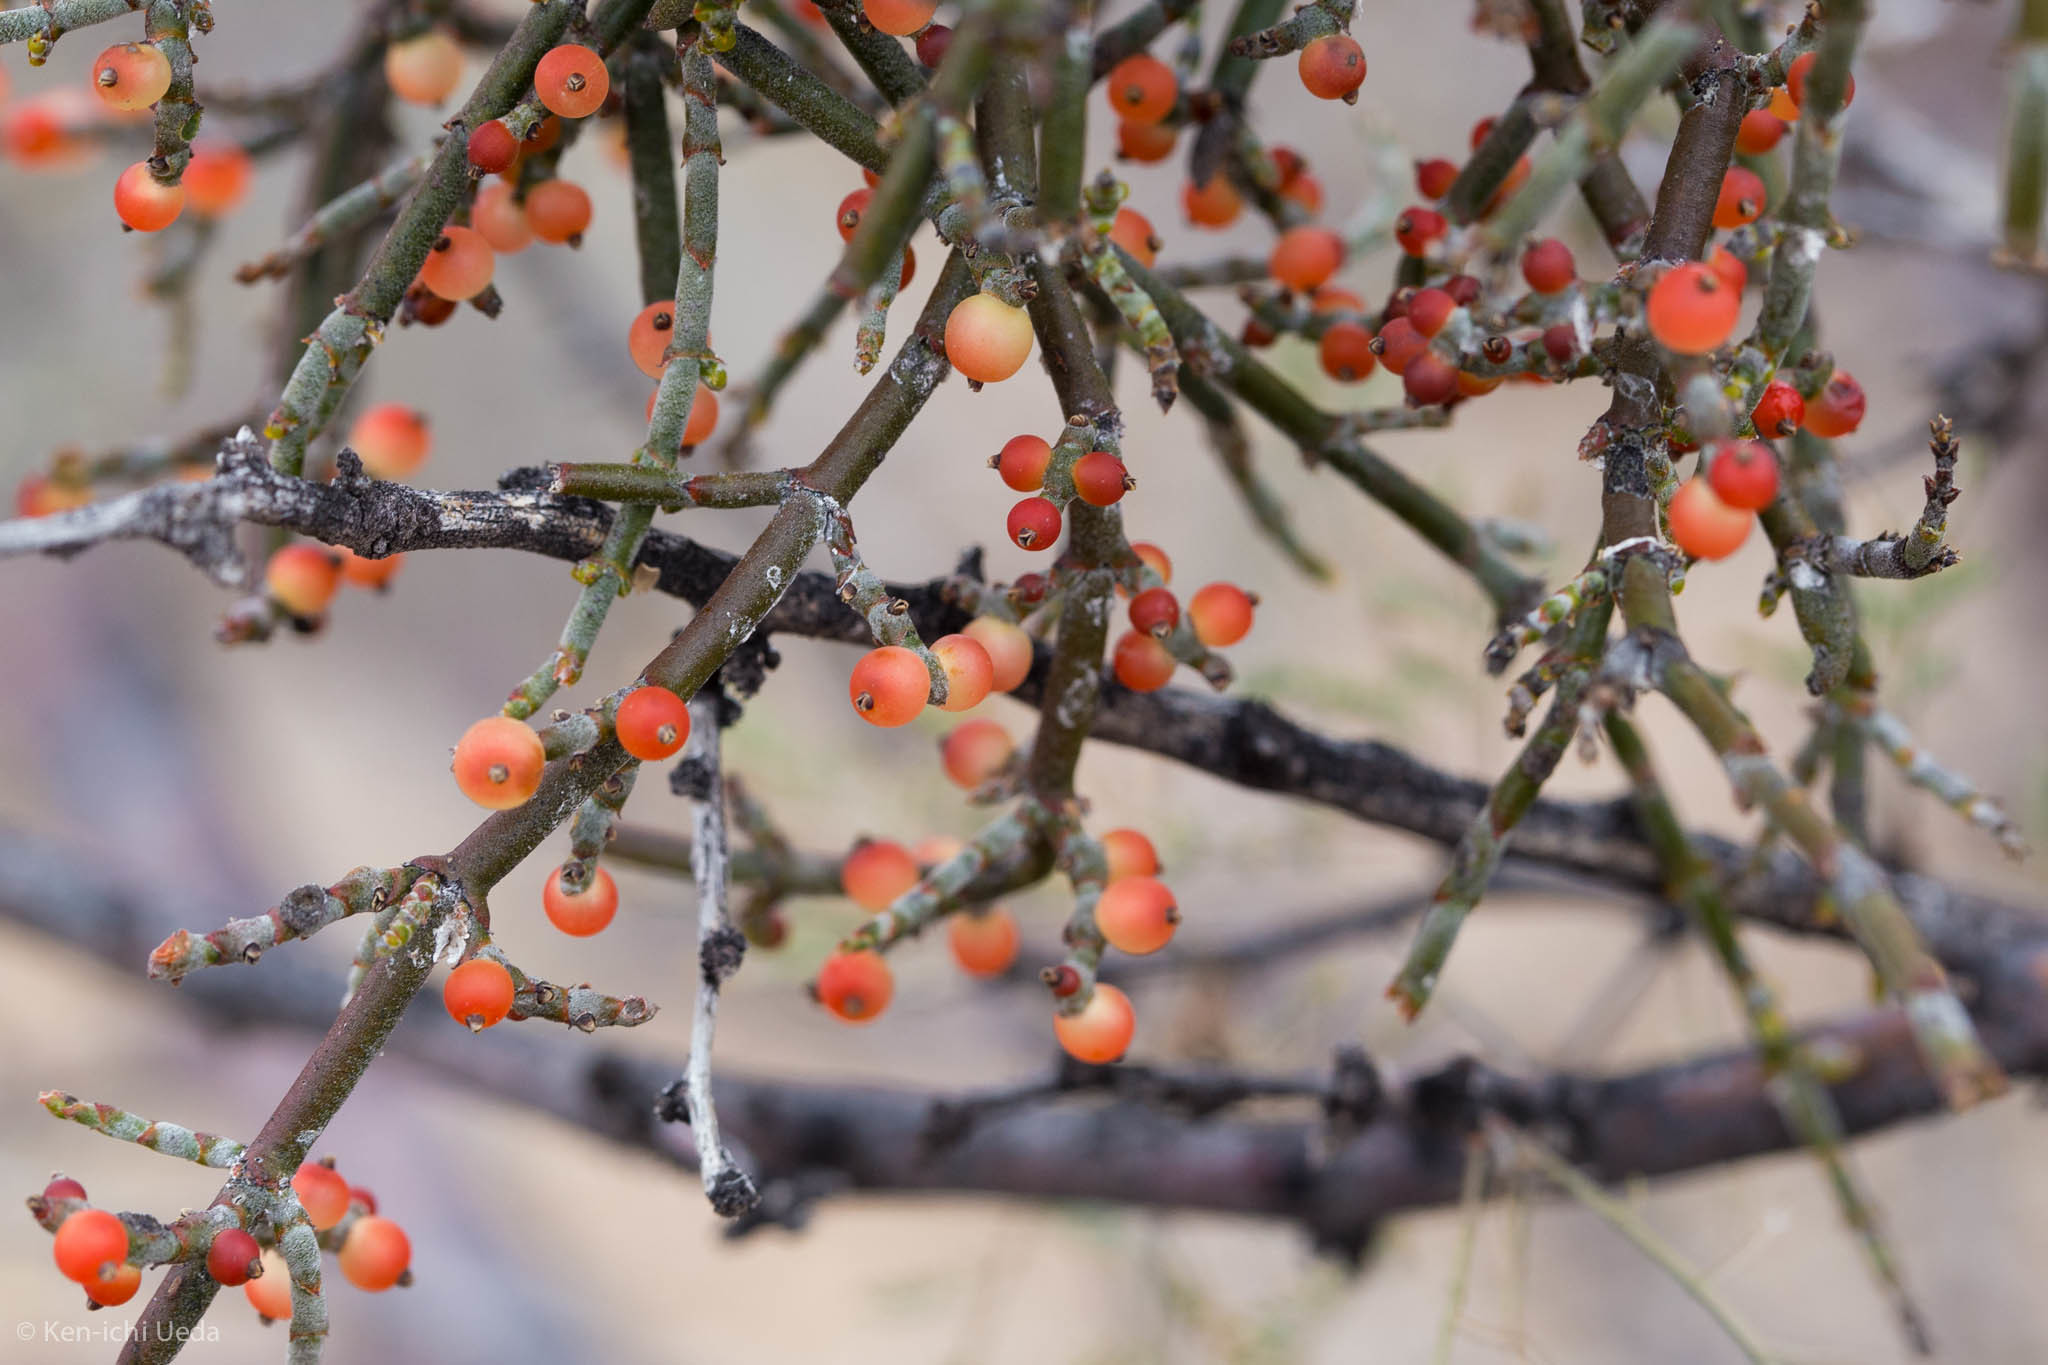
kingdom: Plantae
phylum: Tracheophyta
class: Magnoliopsida
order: Santalales
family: Viscaceae
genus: Phoradendron
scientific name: Phoradendron californicum
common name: Acacia mistletoe
